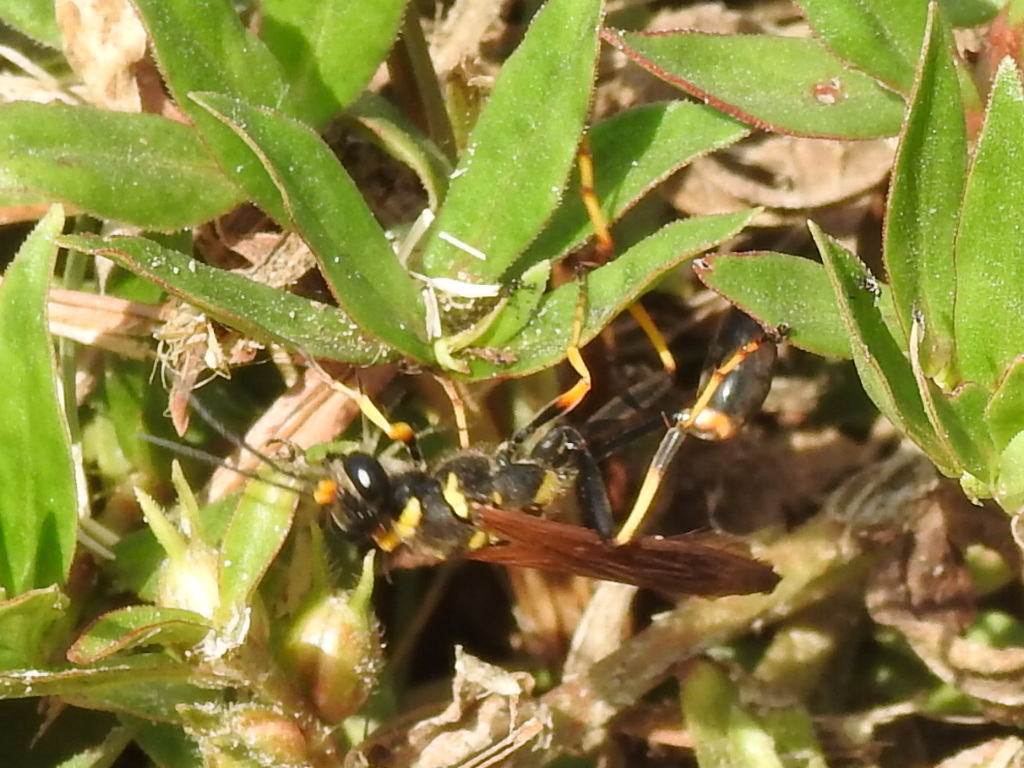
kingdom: Animalia
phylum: Arthropoda
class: Insecta
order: Hymenoptera
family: Sphecidae
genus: Sceliphron
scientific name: Sceliphron caementarium
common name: Mud dauber
